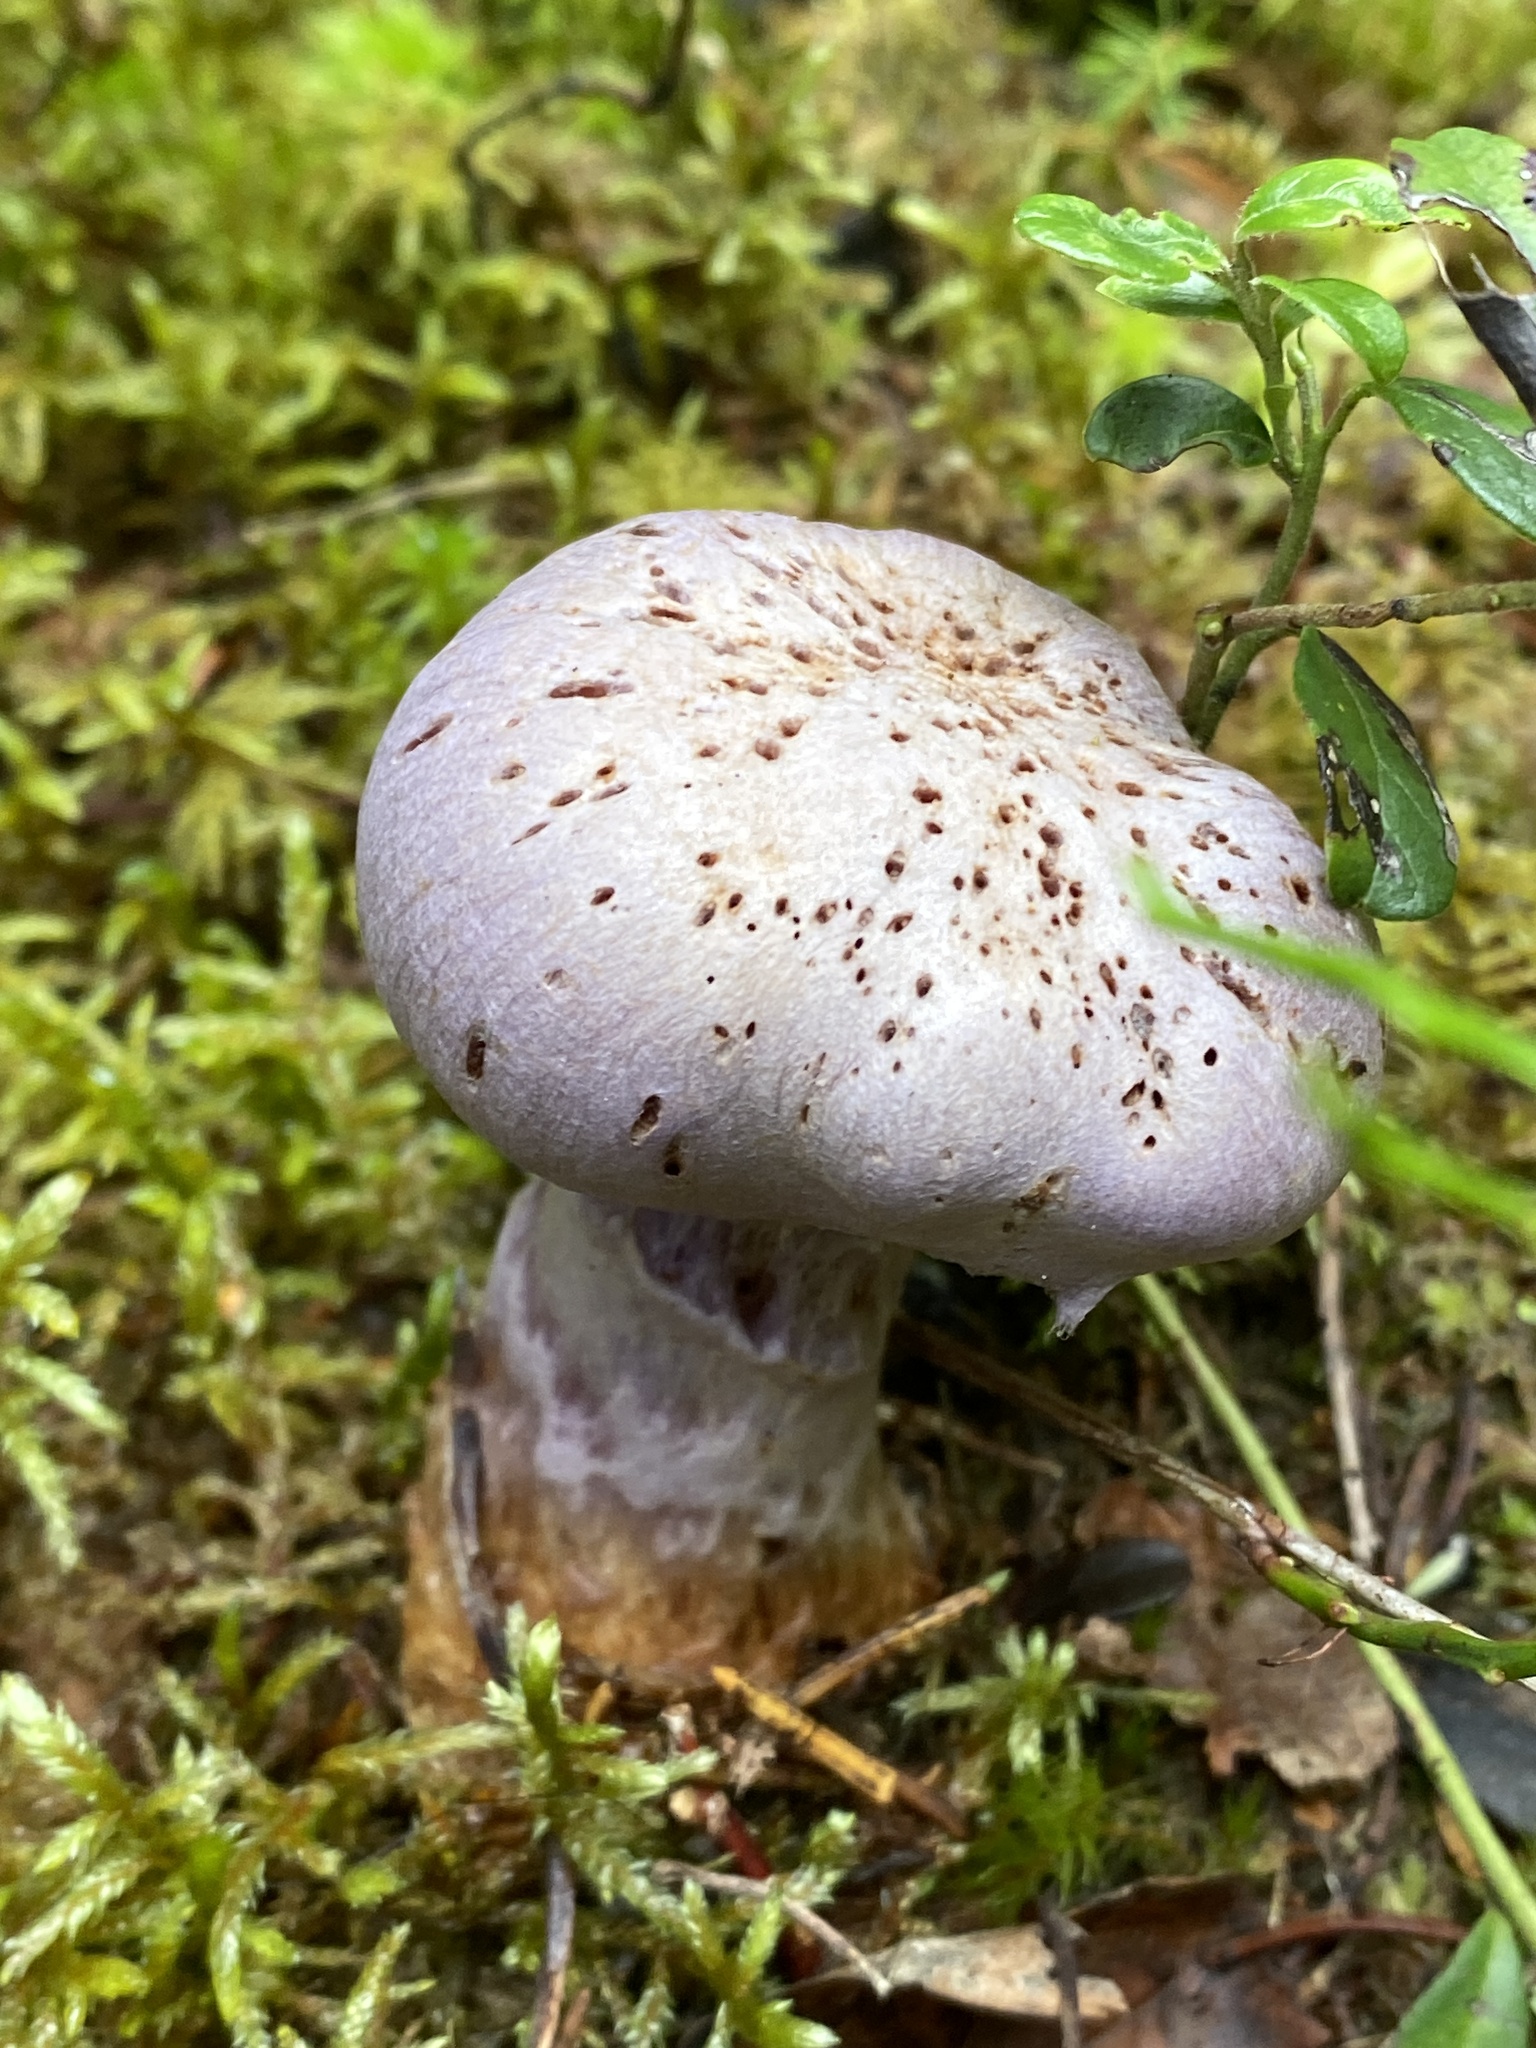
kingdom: Fungi
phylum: Basidiomycota
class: Agaricomycetes
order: Agaricales
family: Cortinariaceae
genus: Cortinarius
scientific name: Cortinarius traganus
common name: Gassy webcap
